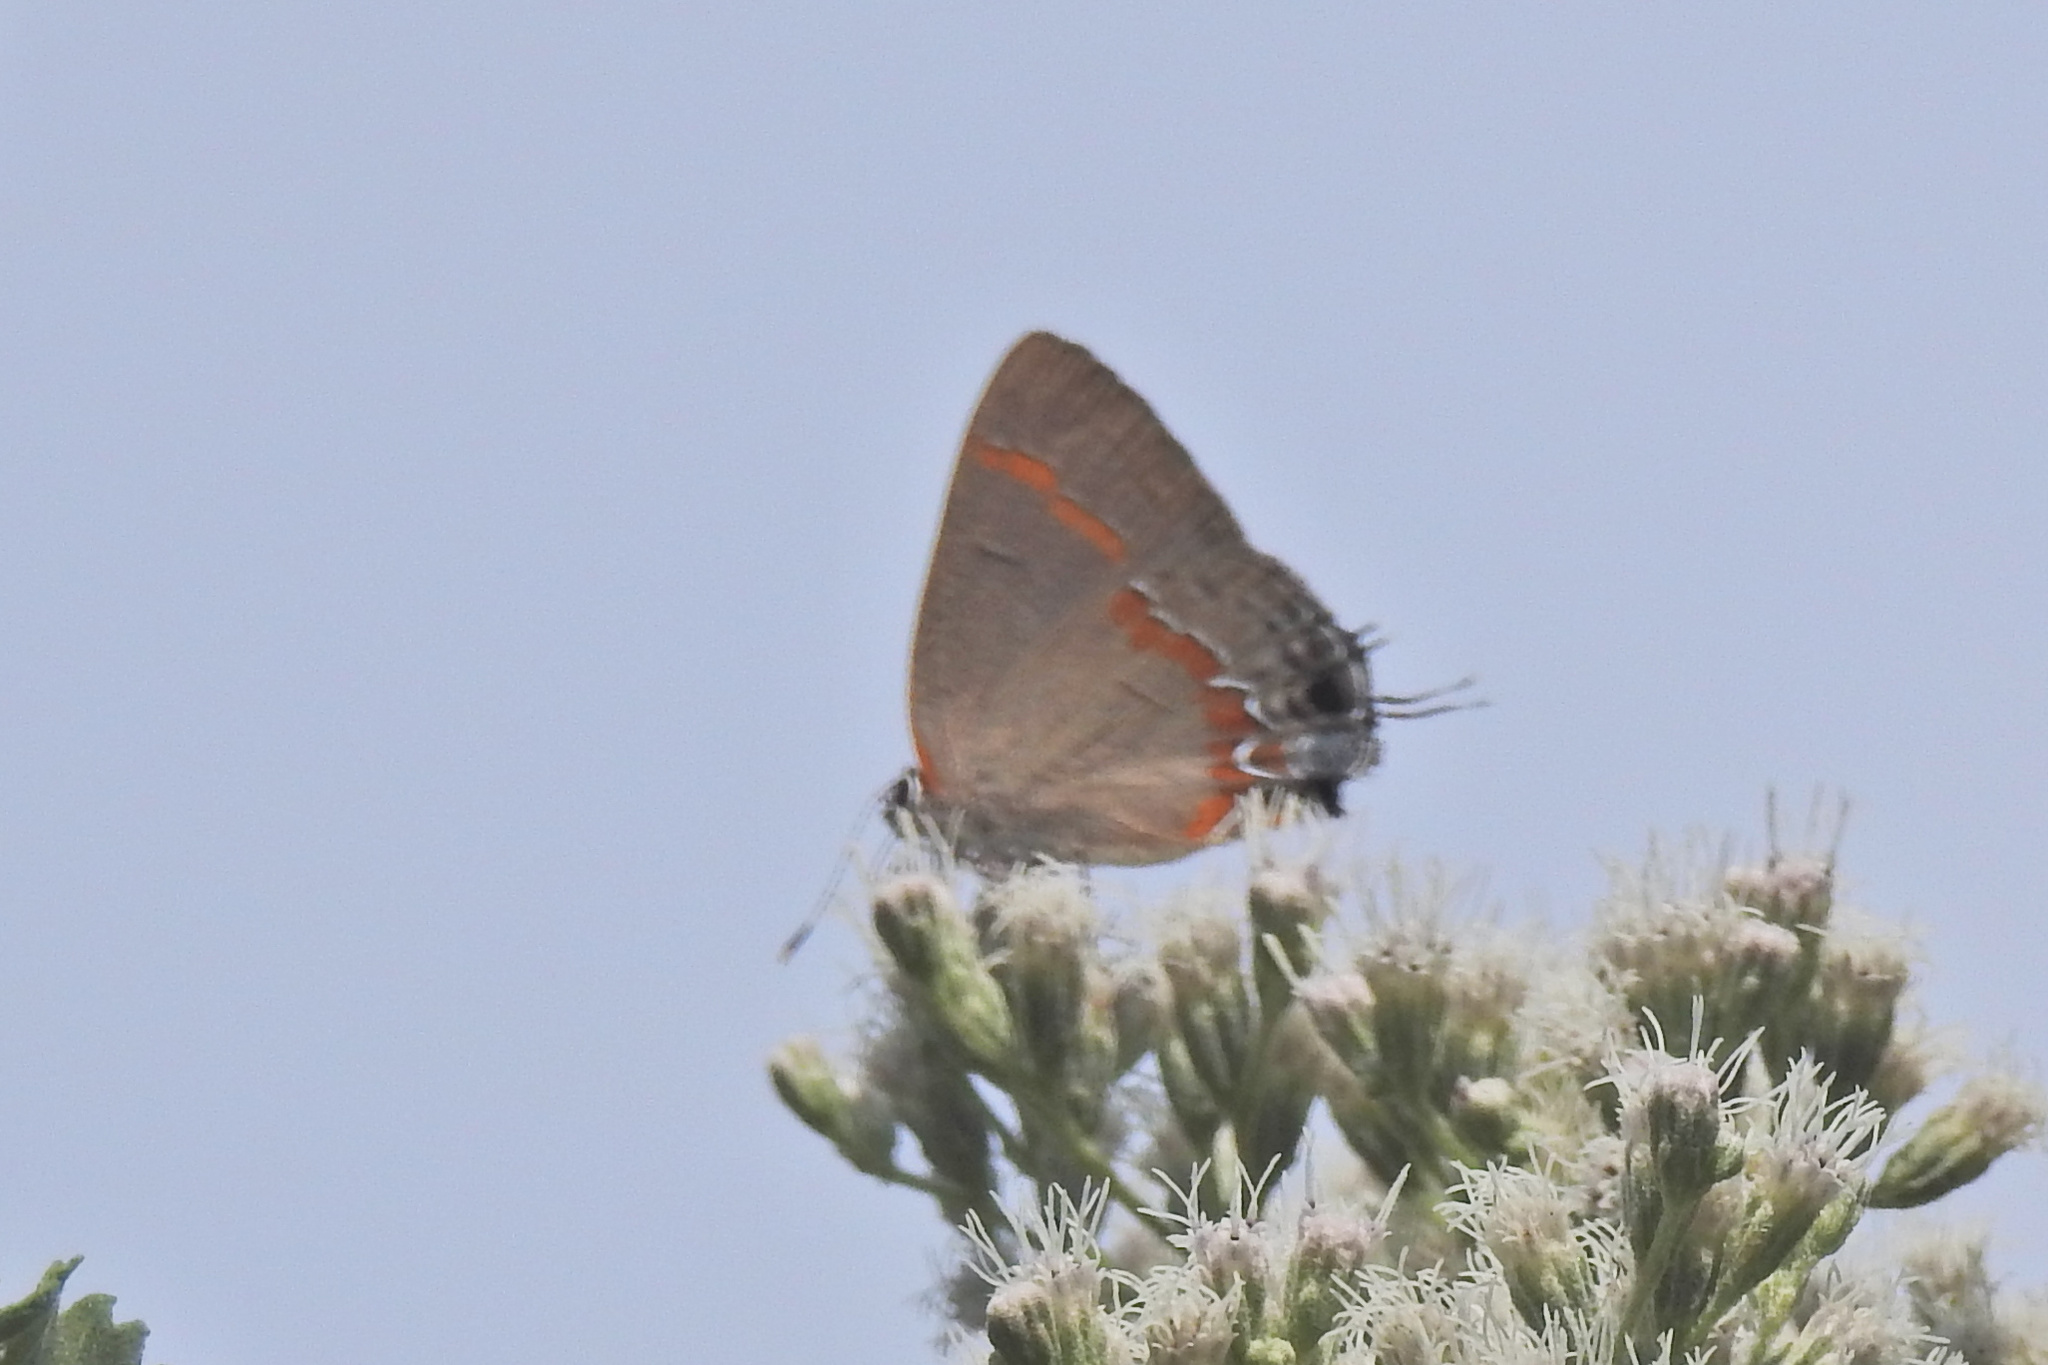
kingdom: Animalia
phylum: Arthropoda
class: Insecta
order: Lepidoptera
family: Lycaenidae
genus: Calycopis
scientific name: Calycopis cecrops
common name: Red-banded hairstreak
